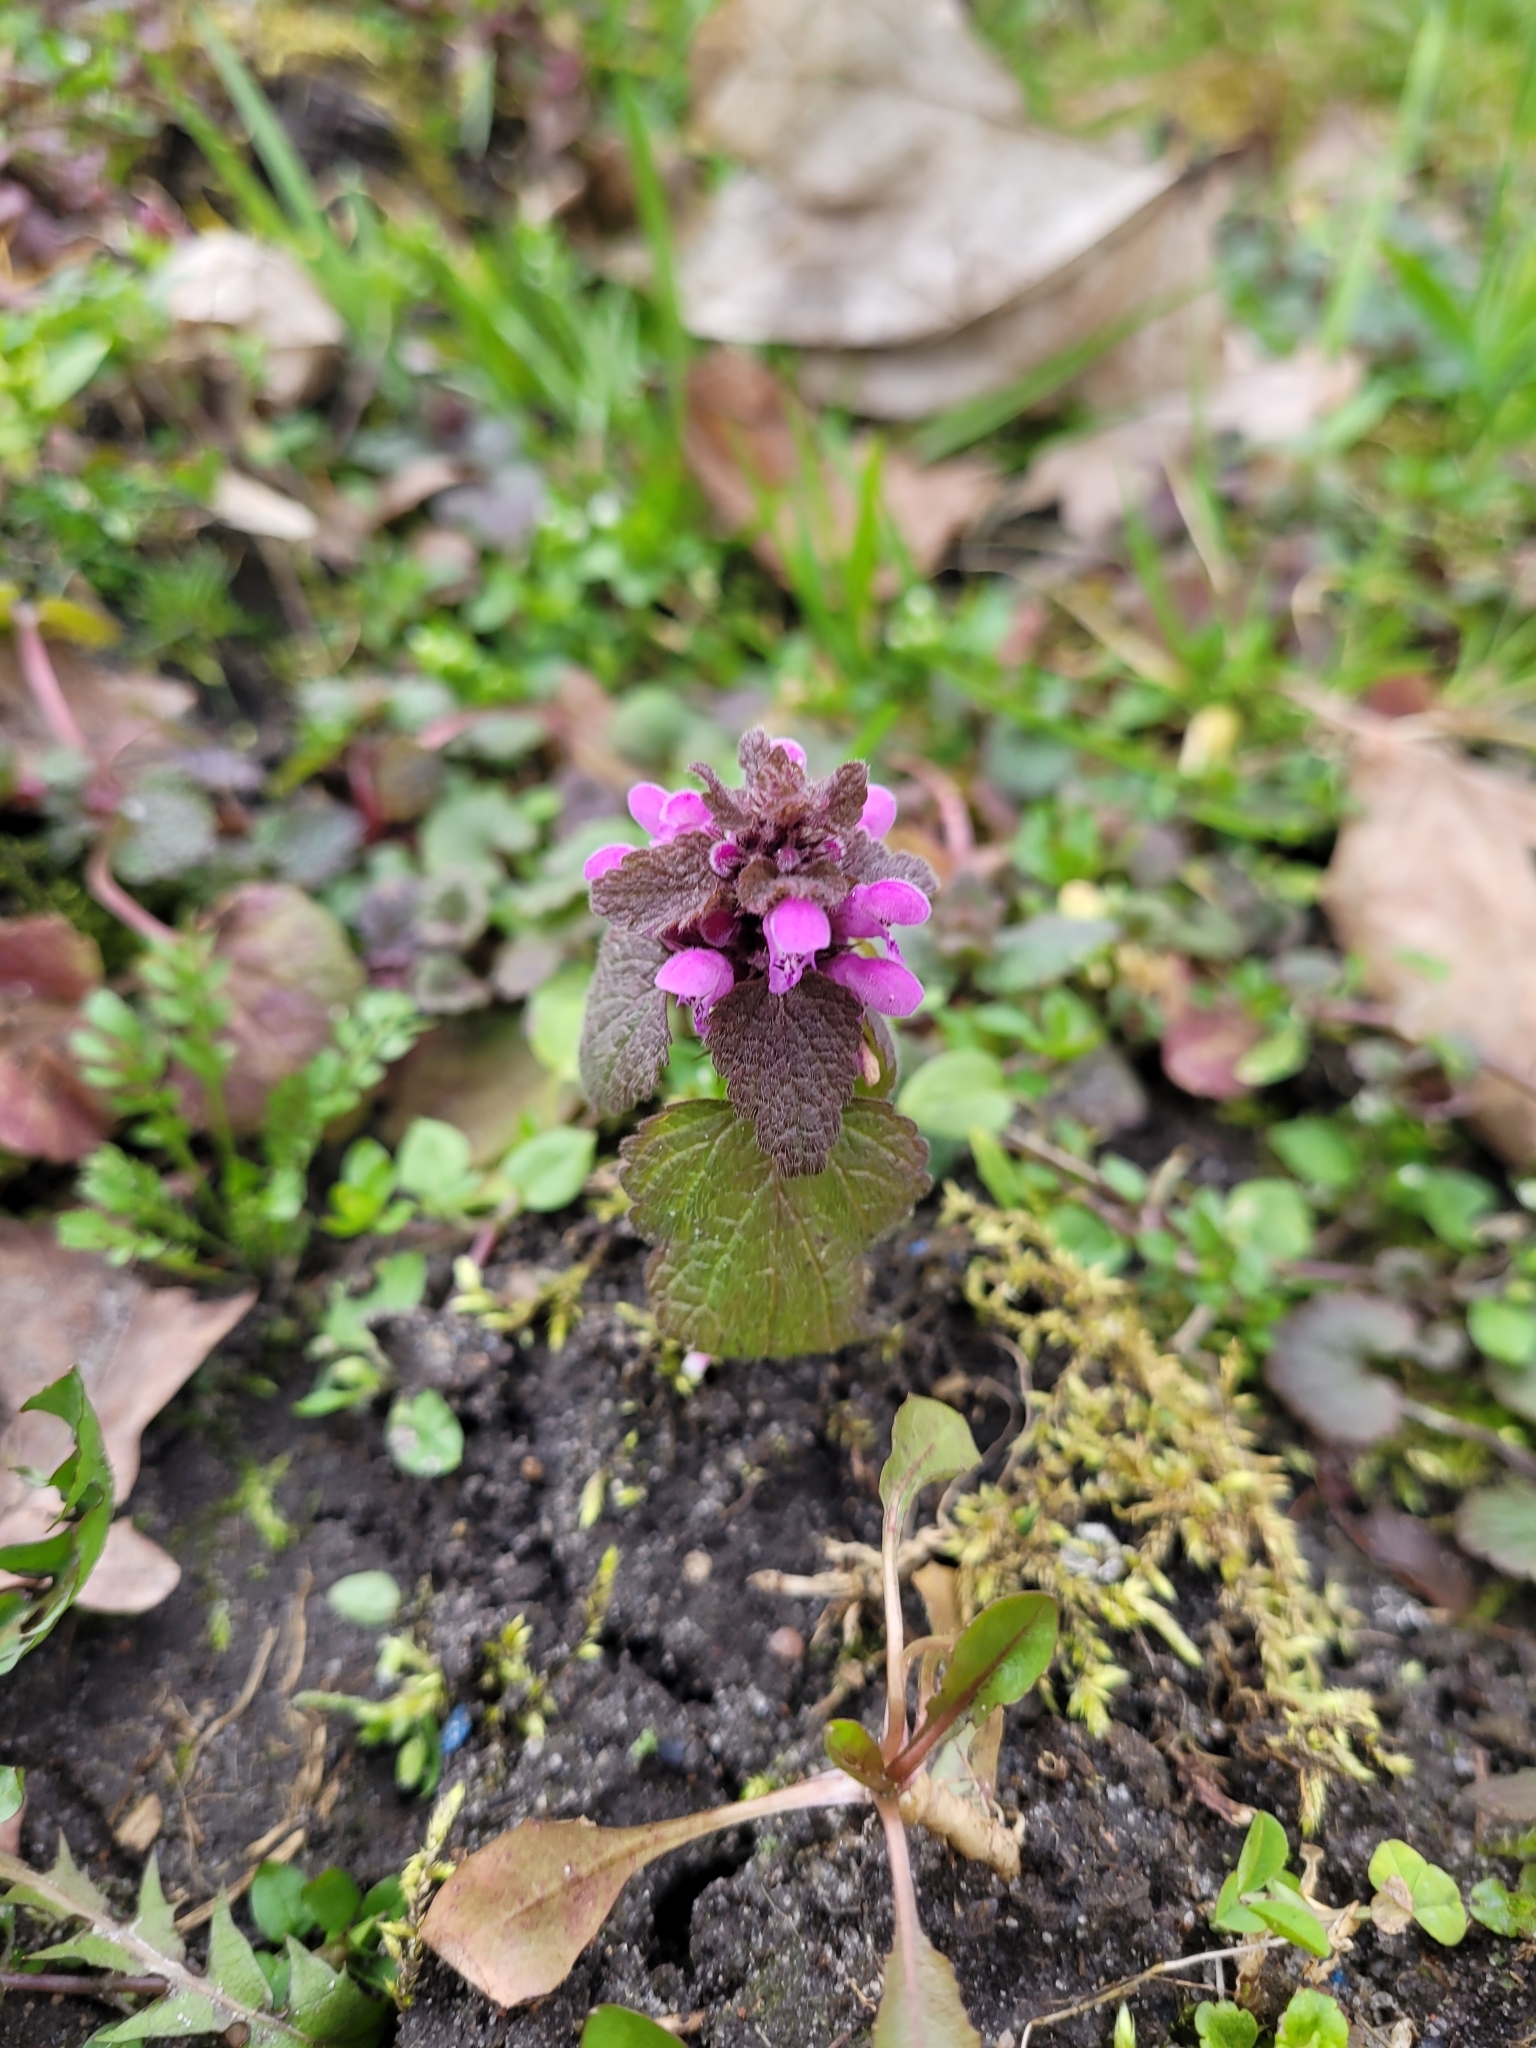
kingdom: Plantae
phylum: Tracheophyta
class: Magnoliopsida
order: Lamiales
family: Lamiaceae
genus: Lamium
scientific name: Lamium purpureum
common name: Red dead-nettle
